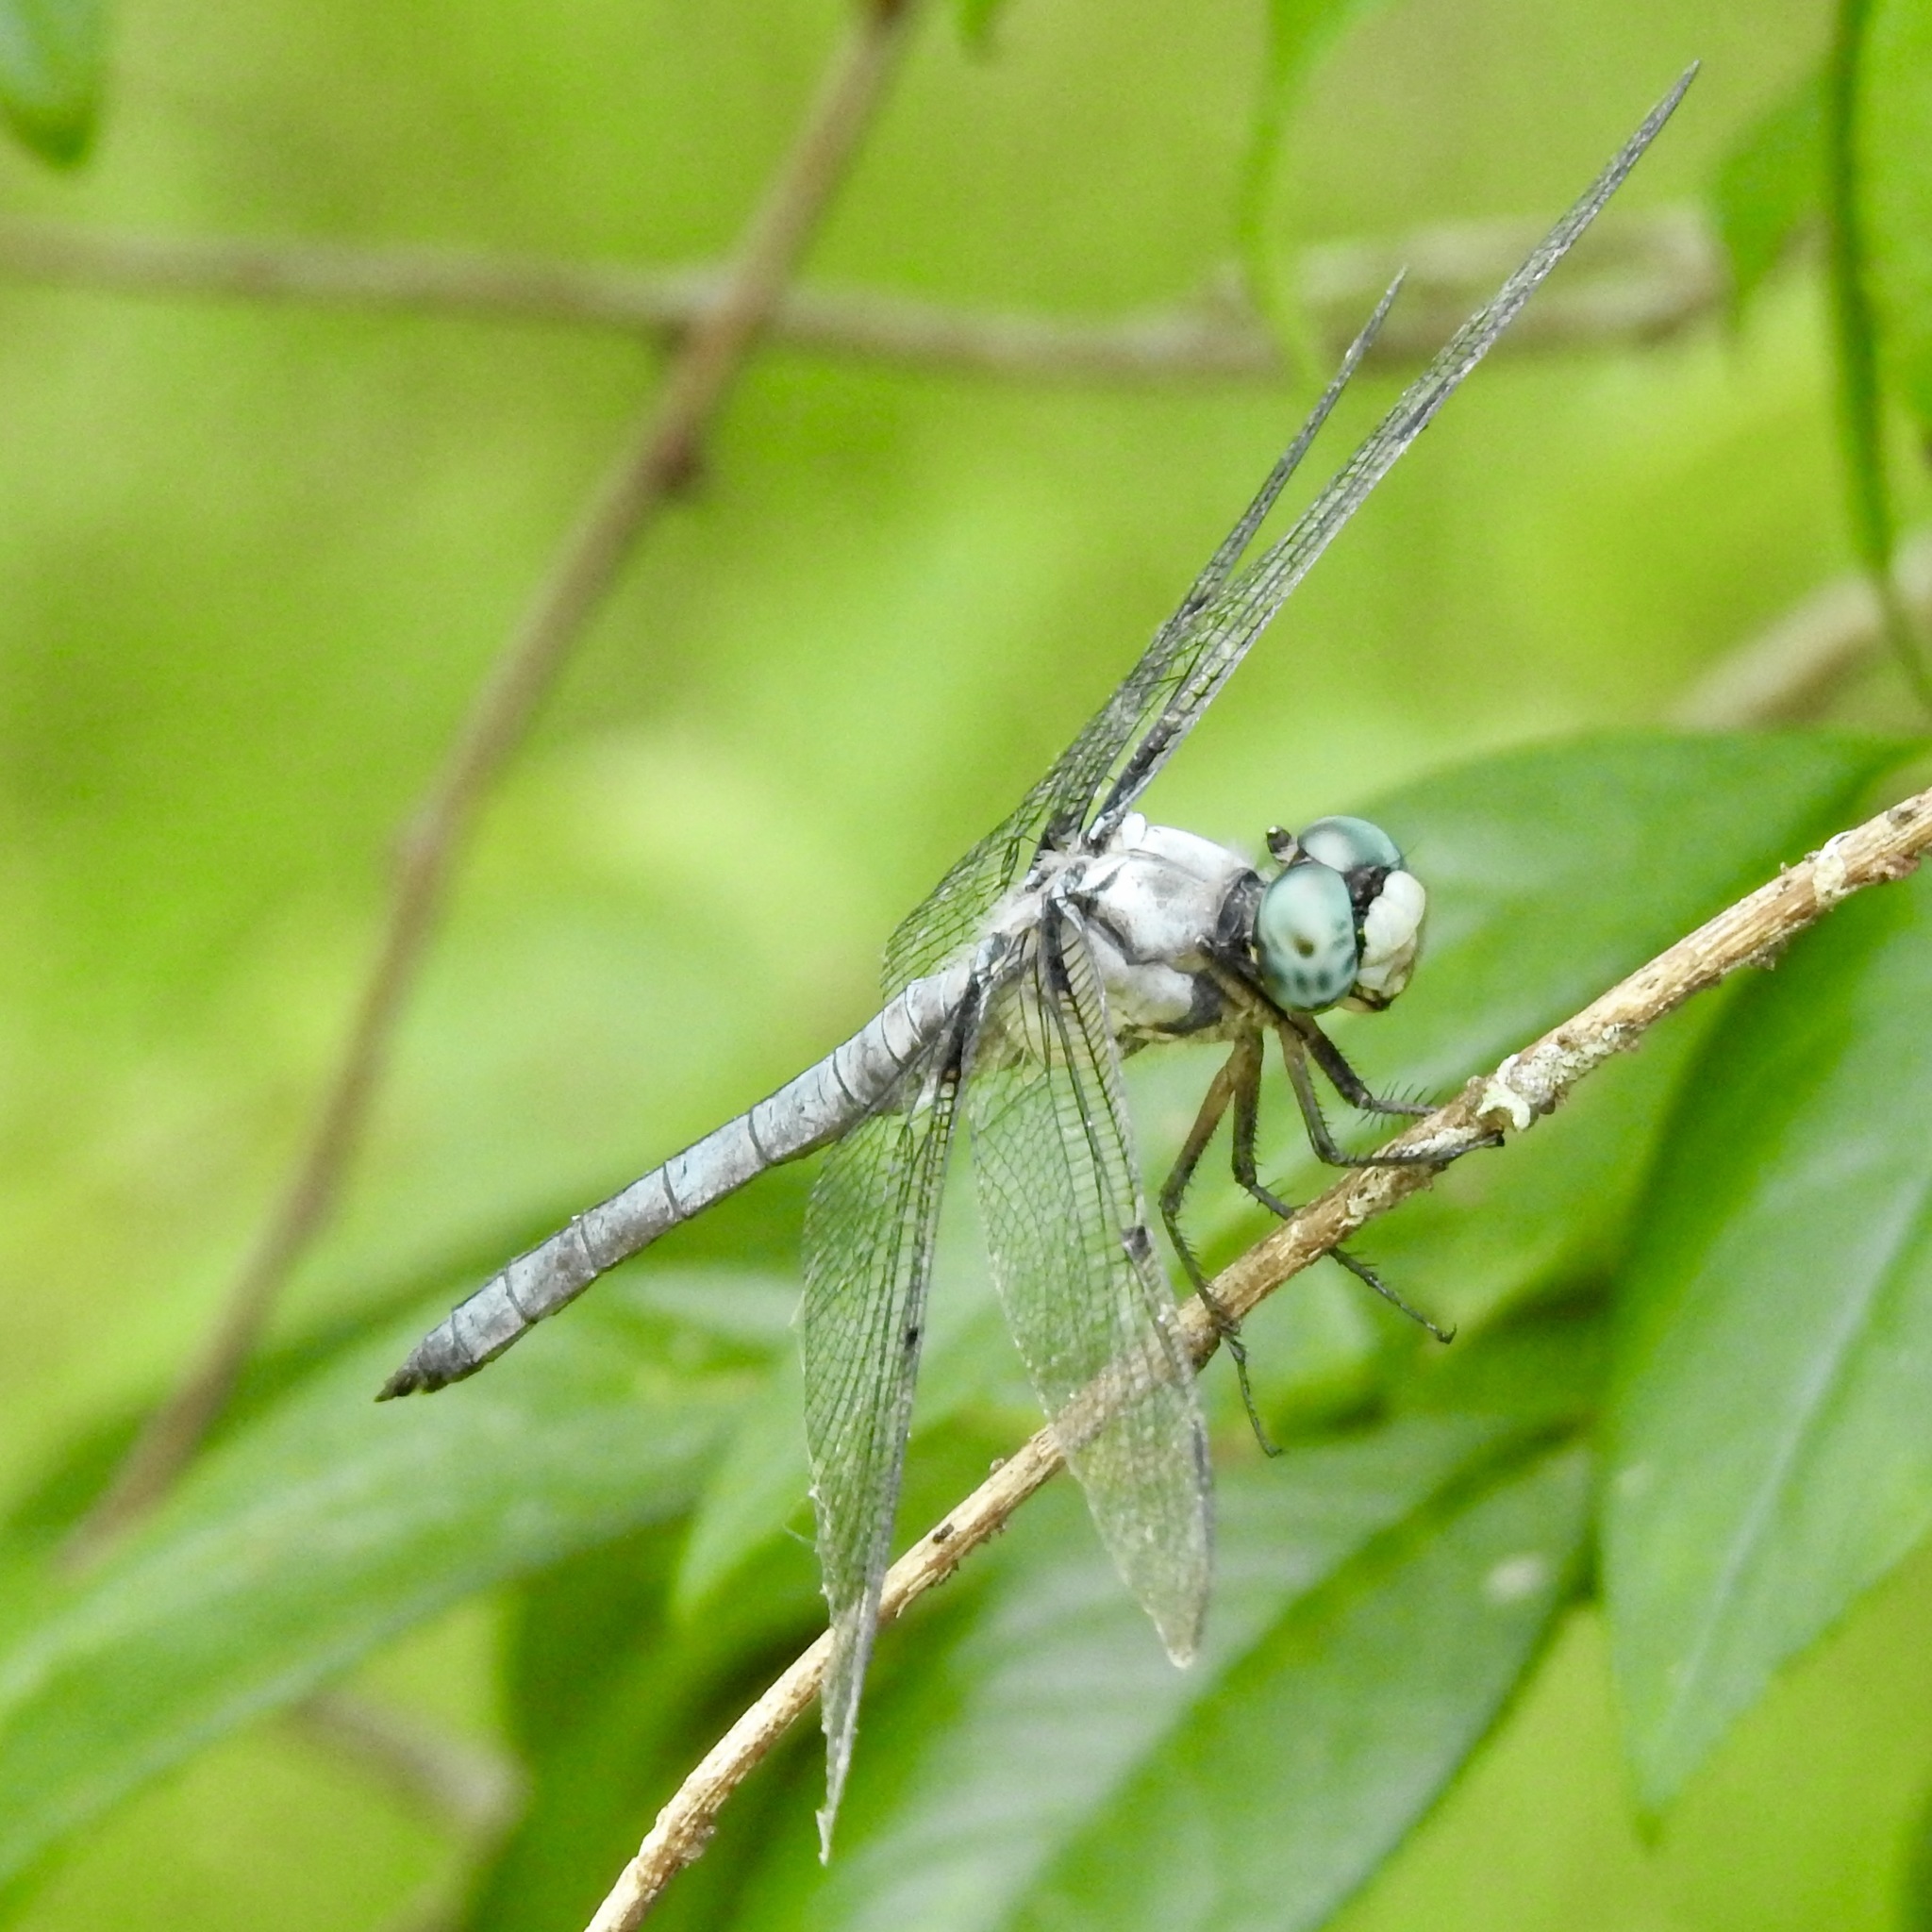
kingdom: Animalia
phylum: Arthropoda
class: Insecta
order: Odonata
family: Libellulidae
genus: Libellula
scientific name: Libellula vibrans
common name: Great blue skimmer
